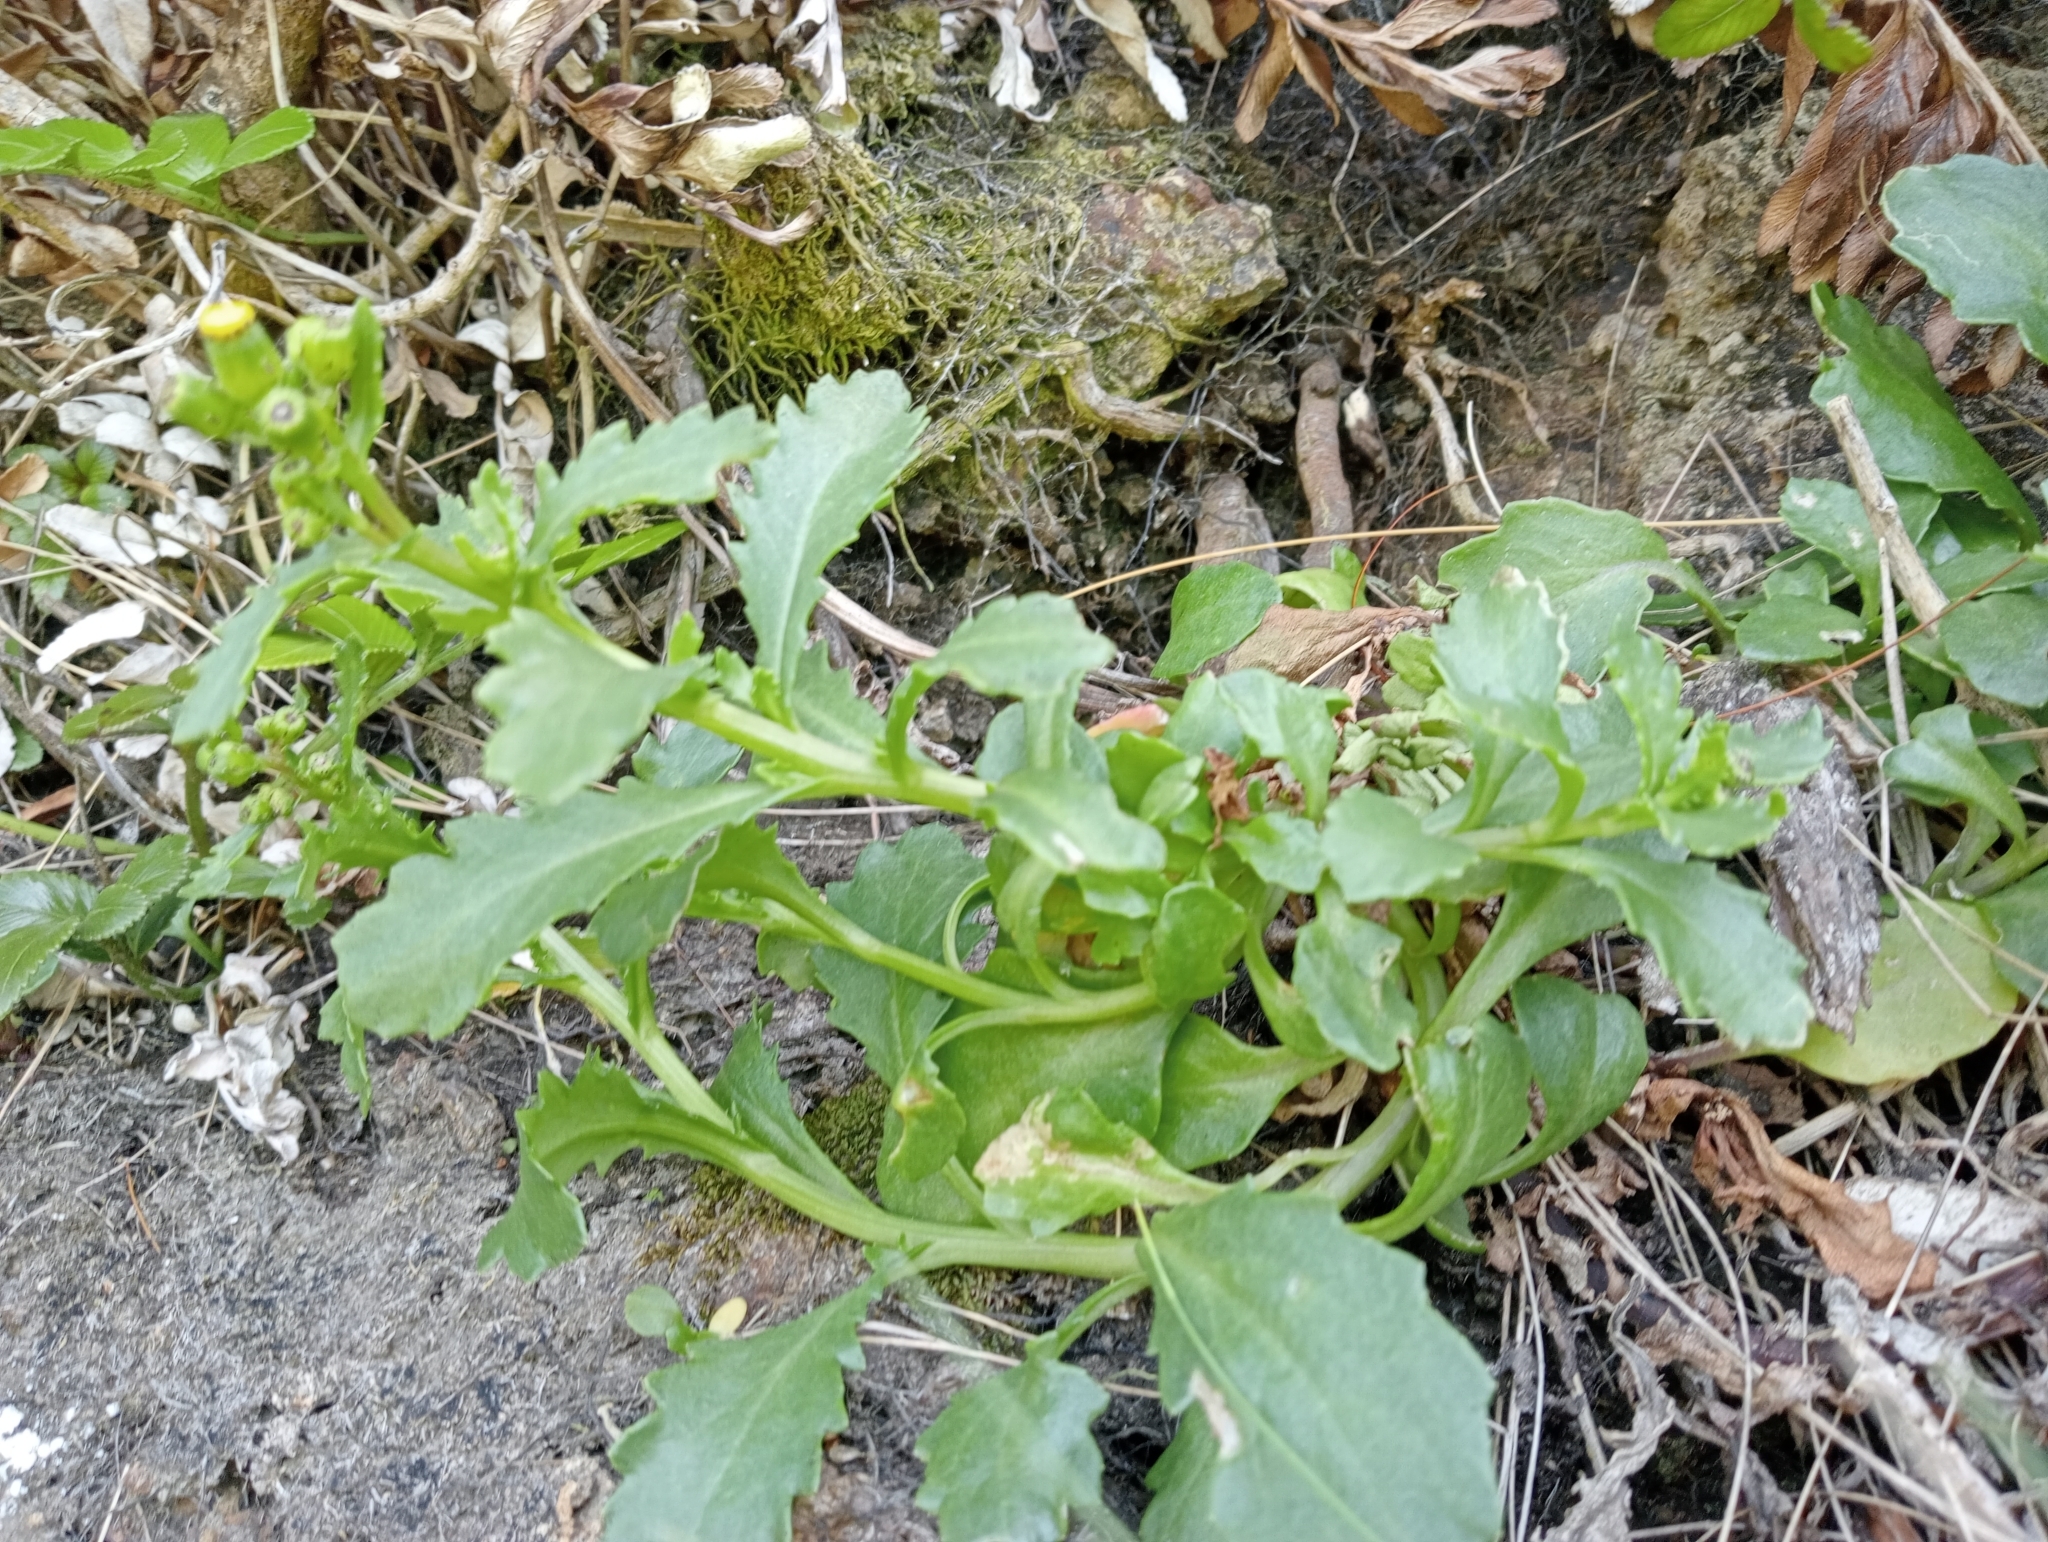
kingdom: Plantae
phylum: Tracheophyta
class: Magnoliopsida
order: Asterales
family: Asteraceae
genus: Senecio
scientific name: Senecio matatini
